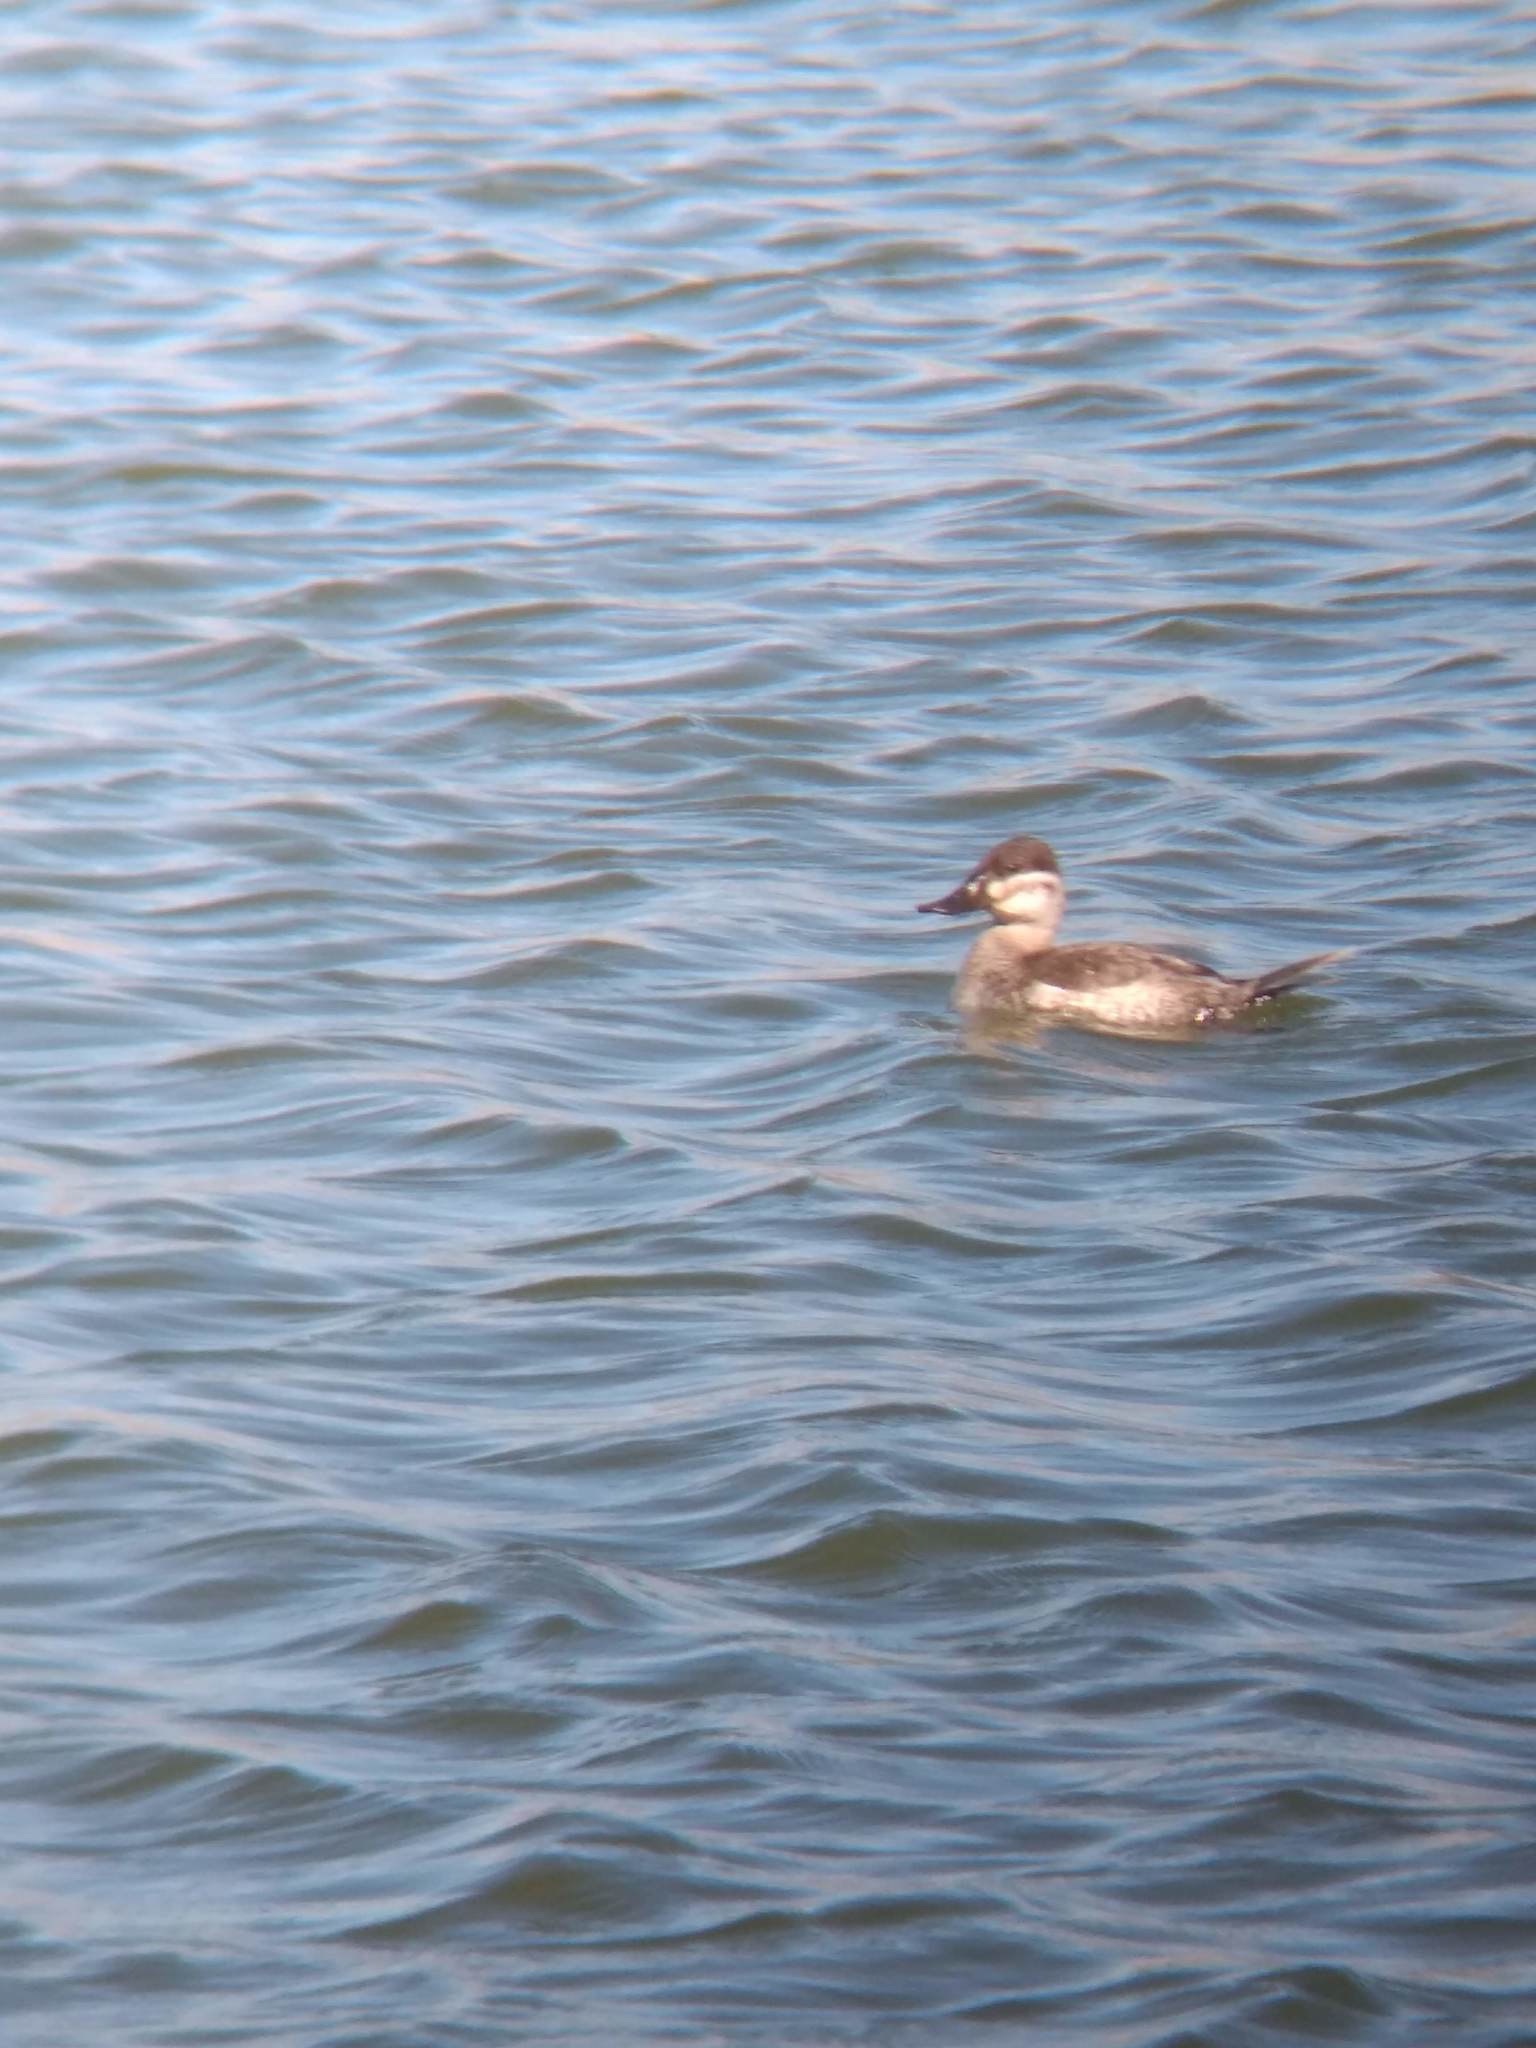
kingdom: Animalia
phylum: Chordata
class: Aves
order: Anseriformes
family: Anatidae
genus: Oxyura
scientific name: Oxyura jamaicensis
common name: Ruddy duck
